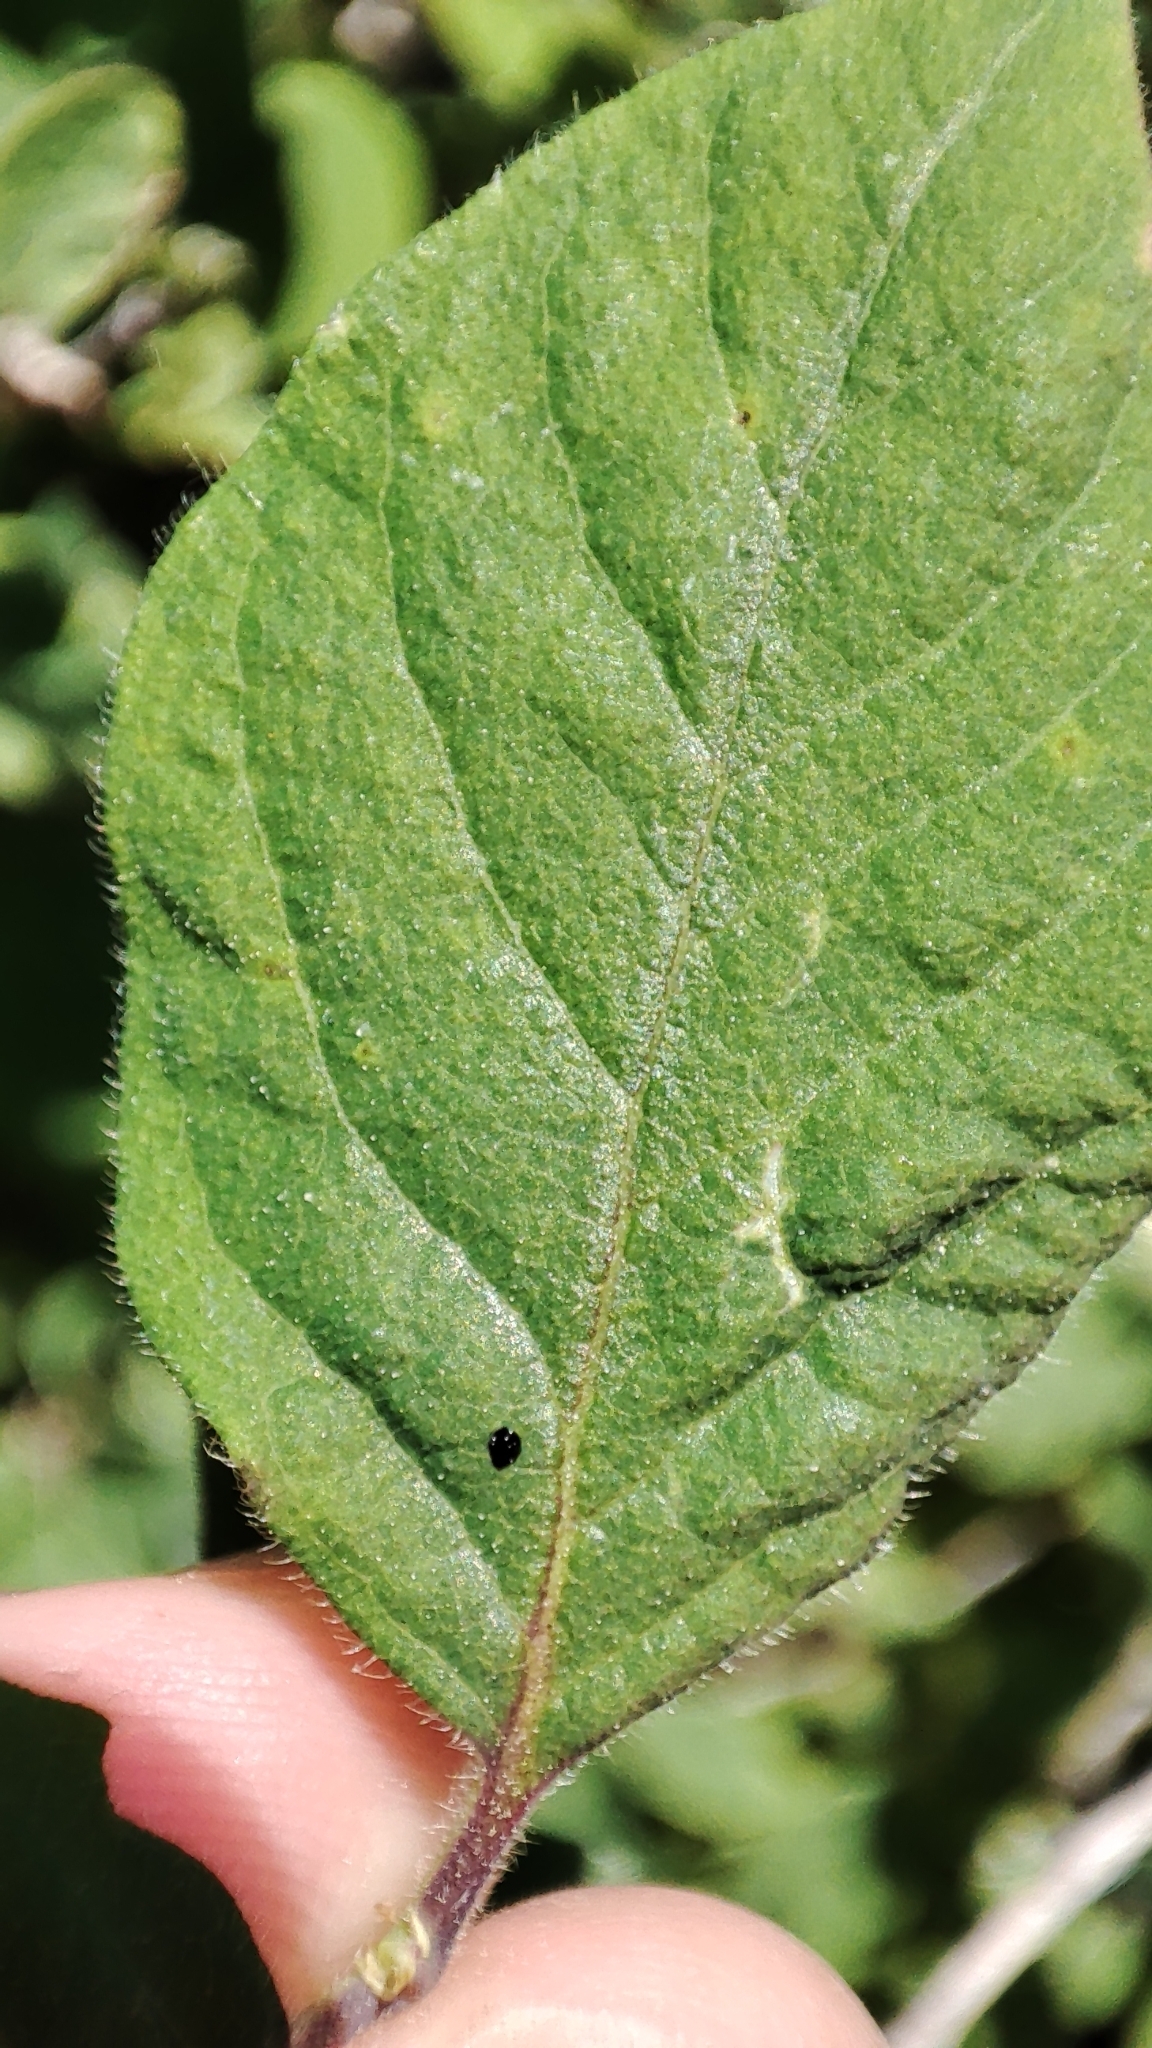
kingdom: Plantae
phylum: Tracheophyta
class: Magnoliopsida
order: Dipsacales
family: Caprifoliaceae
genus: Lonicera
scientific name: Lonicera xylosteum
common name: Fly honeysuckle
